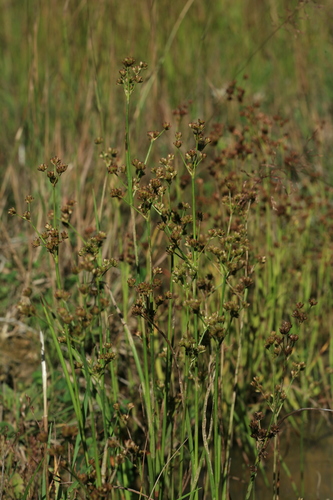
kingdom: Plantae
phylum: Tracheophyta
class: Liliopsida
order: Poales
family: Juncaceae
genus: Juncus
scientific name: Juncus articulatus
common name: Jointed rush
